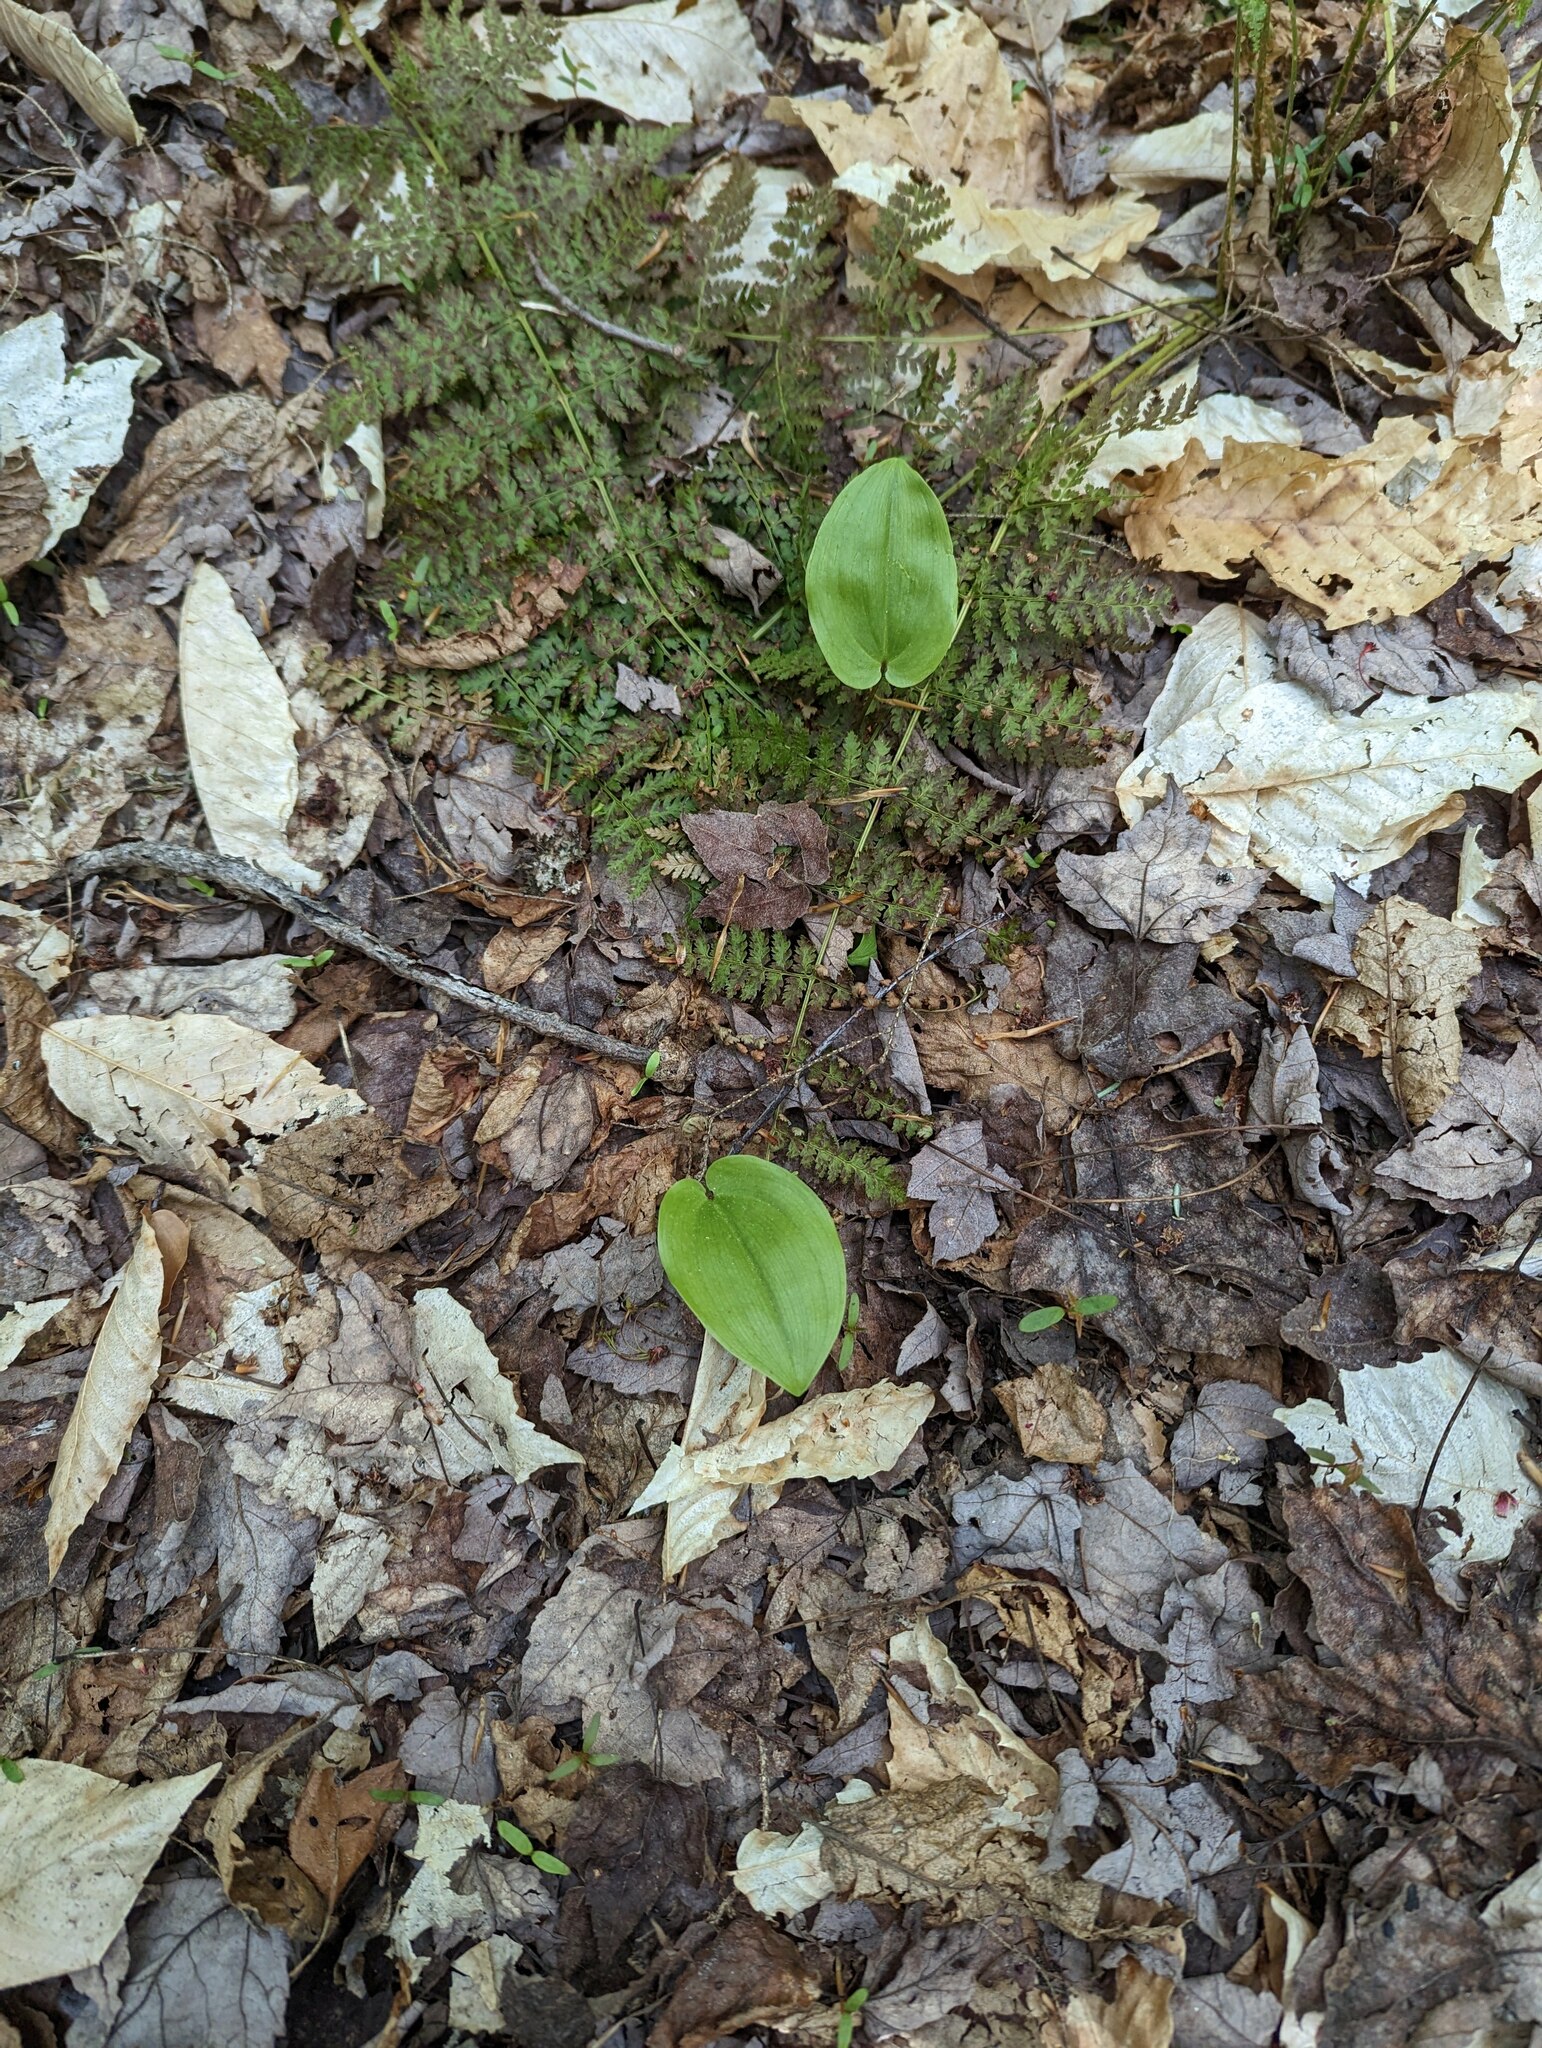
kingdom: Plantae
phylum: Tracheophyta
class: Liliopsida
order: Asparagales
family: Asparagaceae
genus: Maianthemum
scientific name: Maianthemum canadense
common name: False lily-of-the-valley
